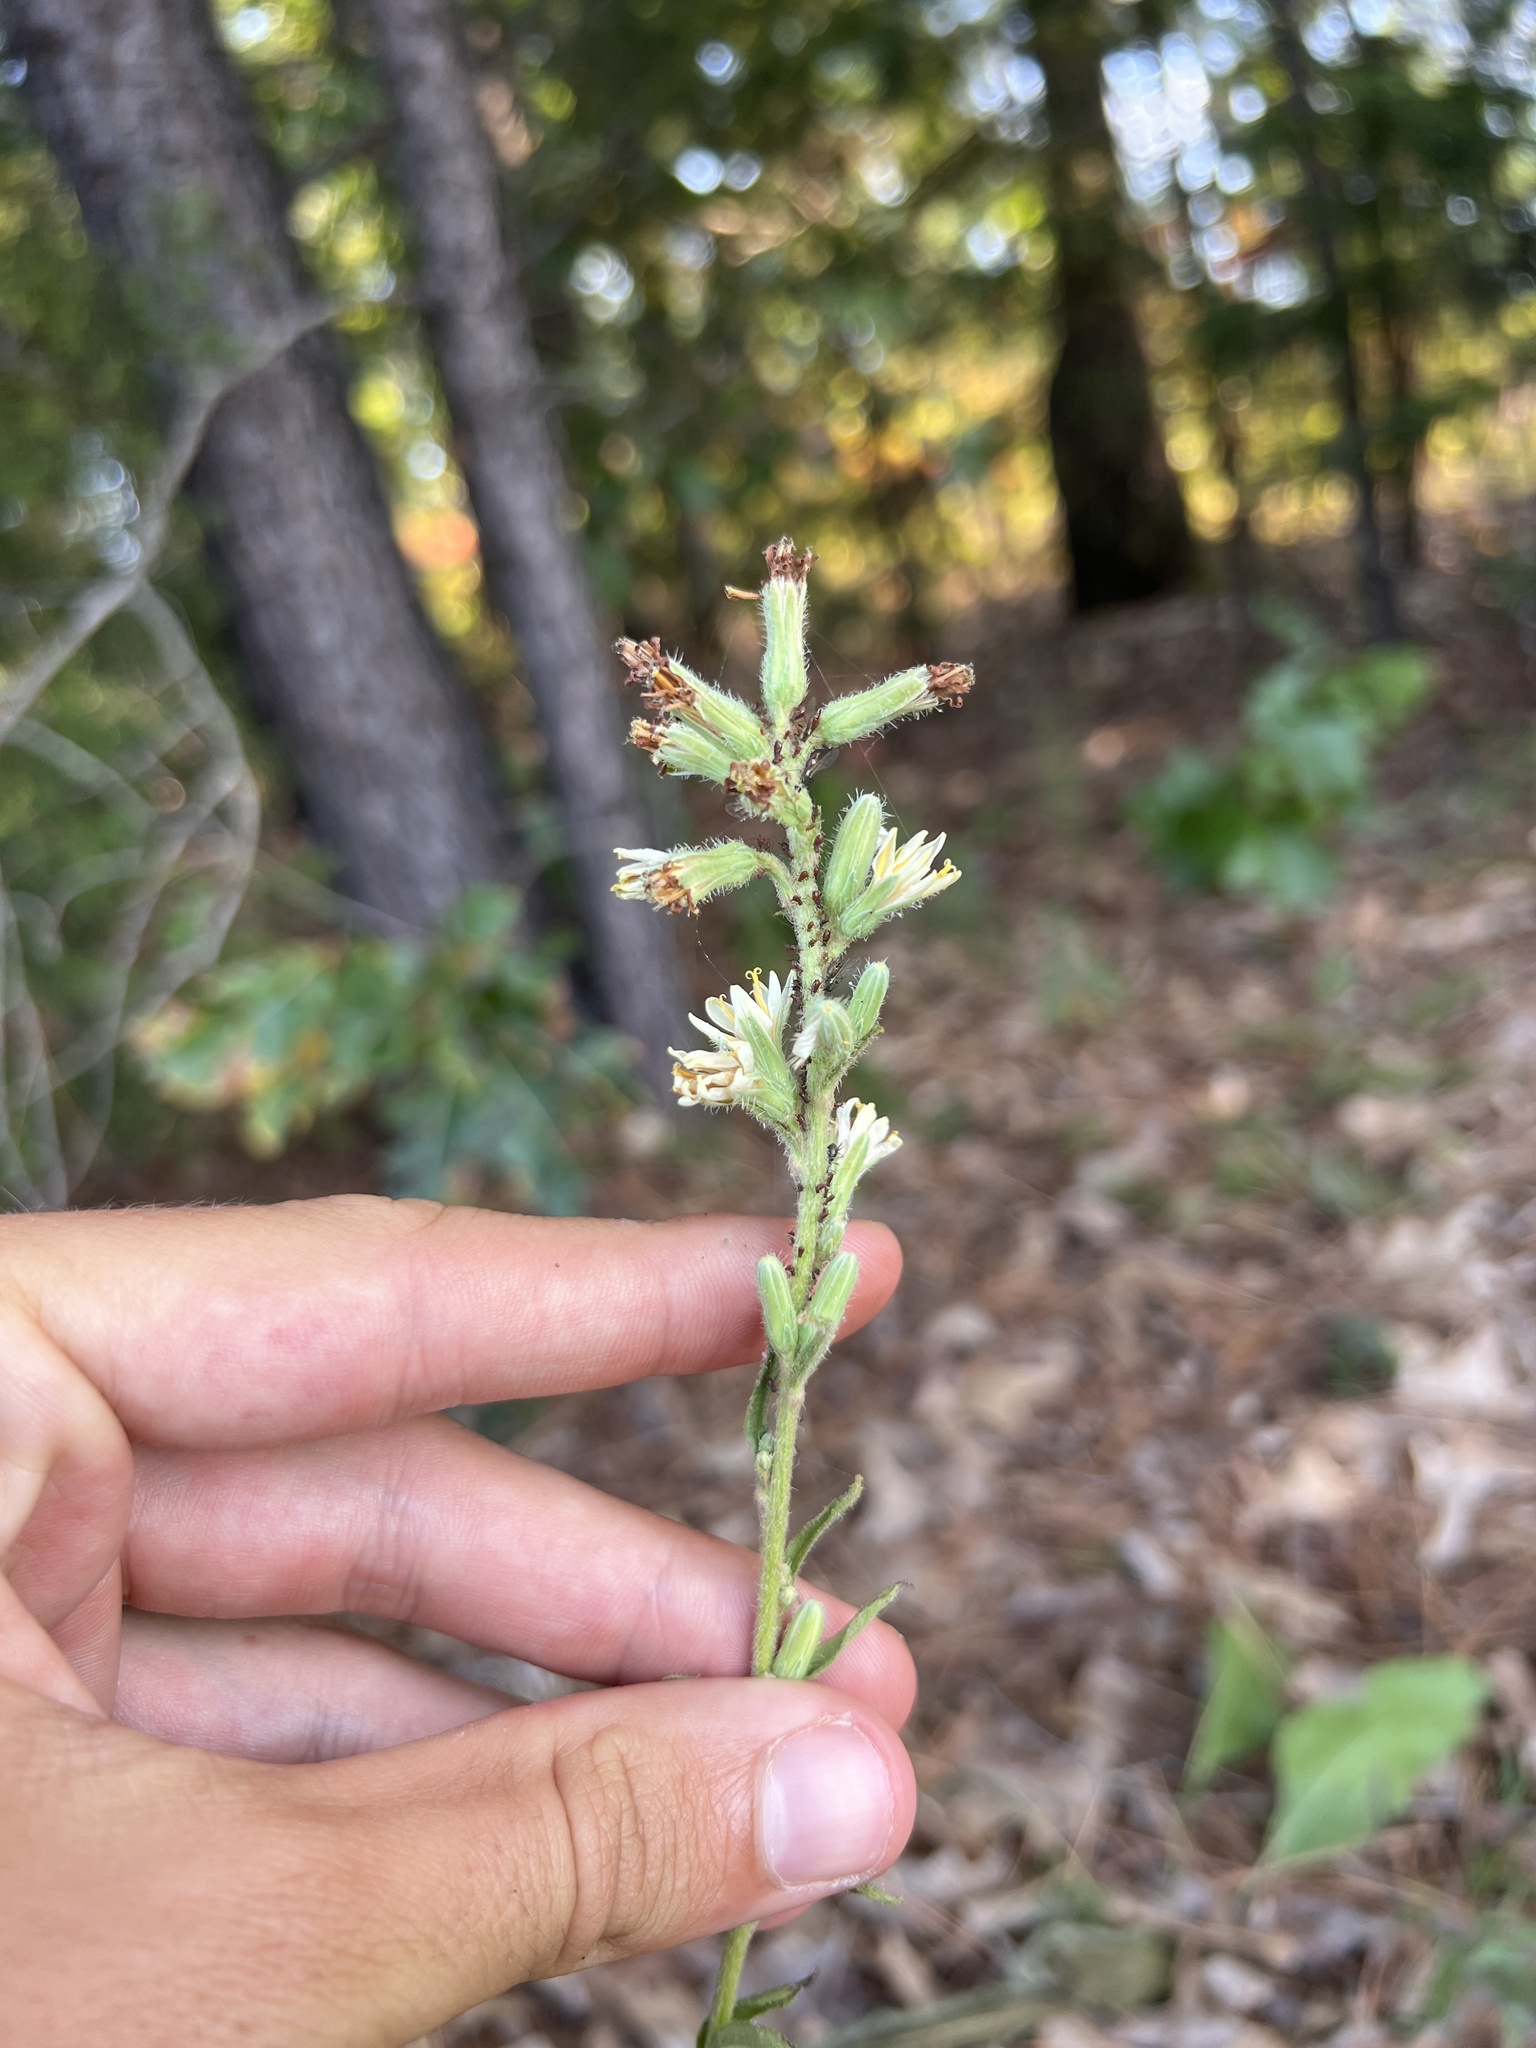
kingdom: Plantae
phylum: Tracheophyta
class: Magnoliopsida
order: Asterales
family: Asteraceae
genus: Nabalus
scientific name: Nabalus asper
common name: Rough rattlesnakeroot
